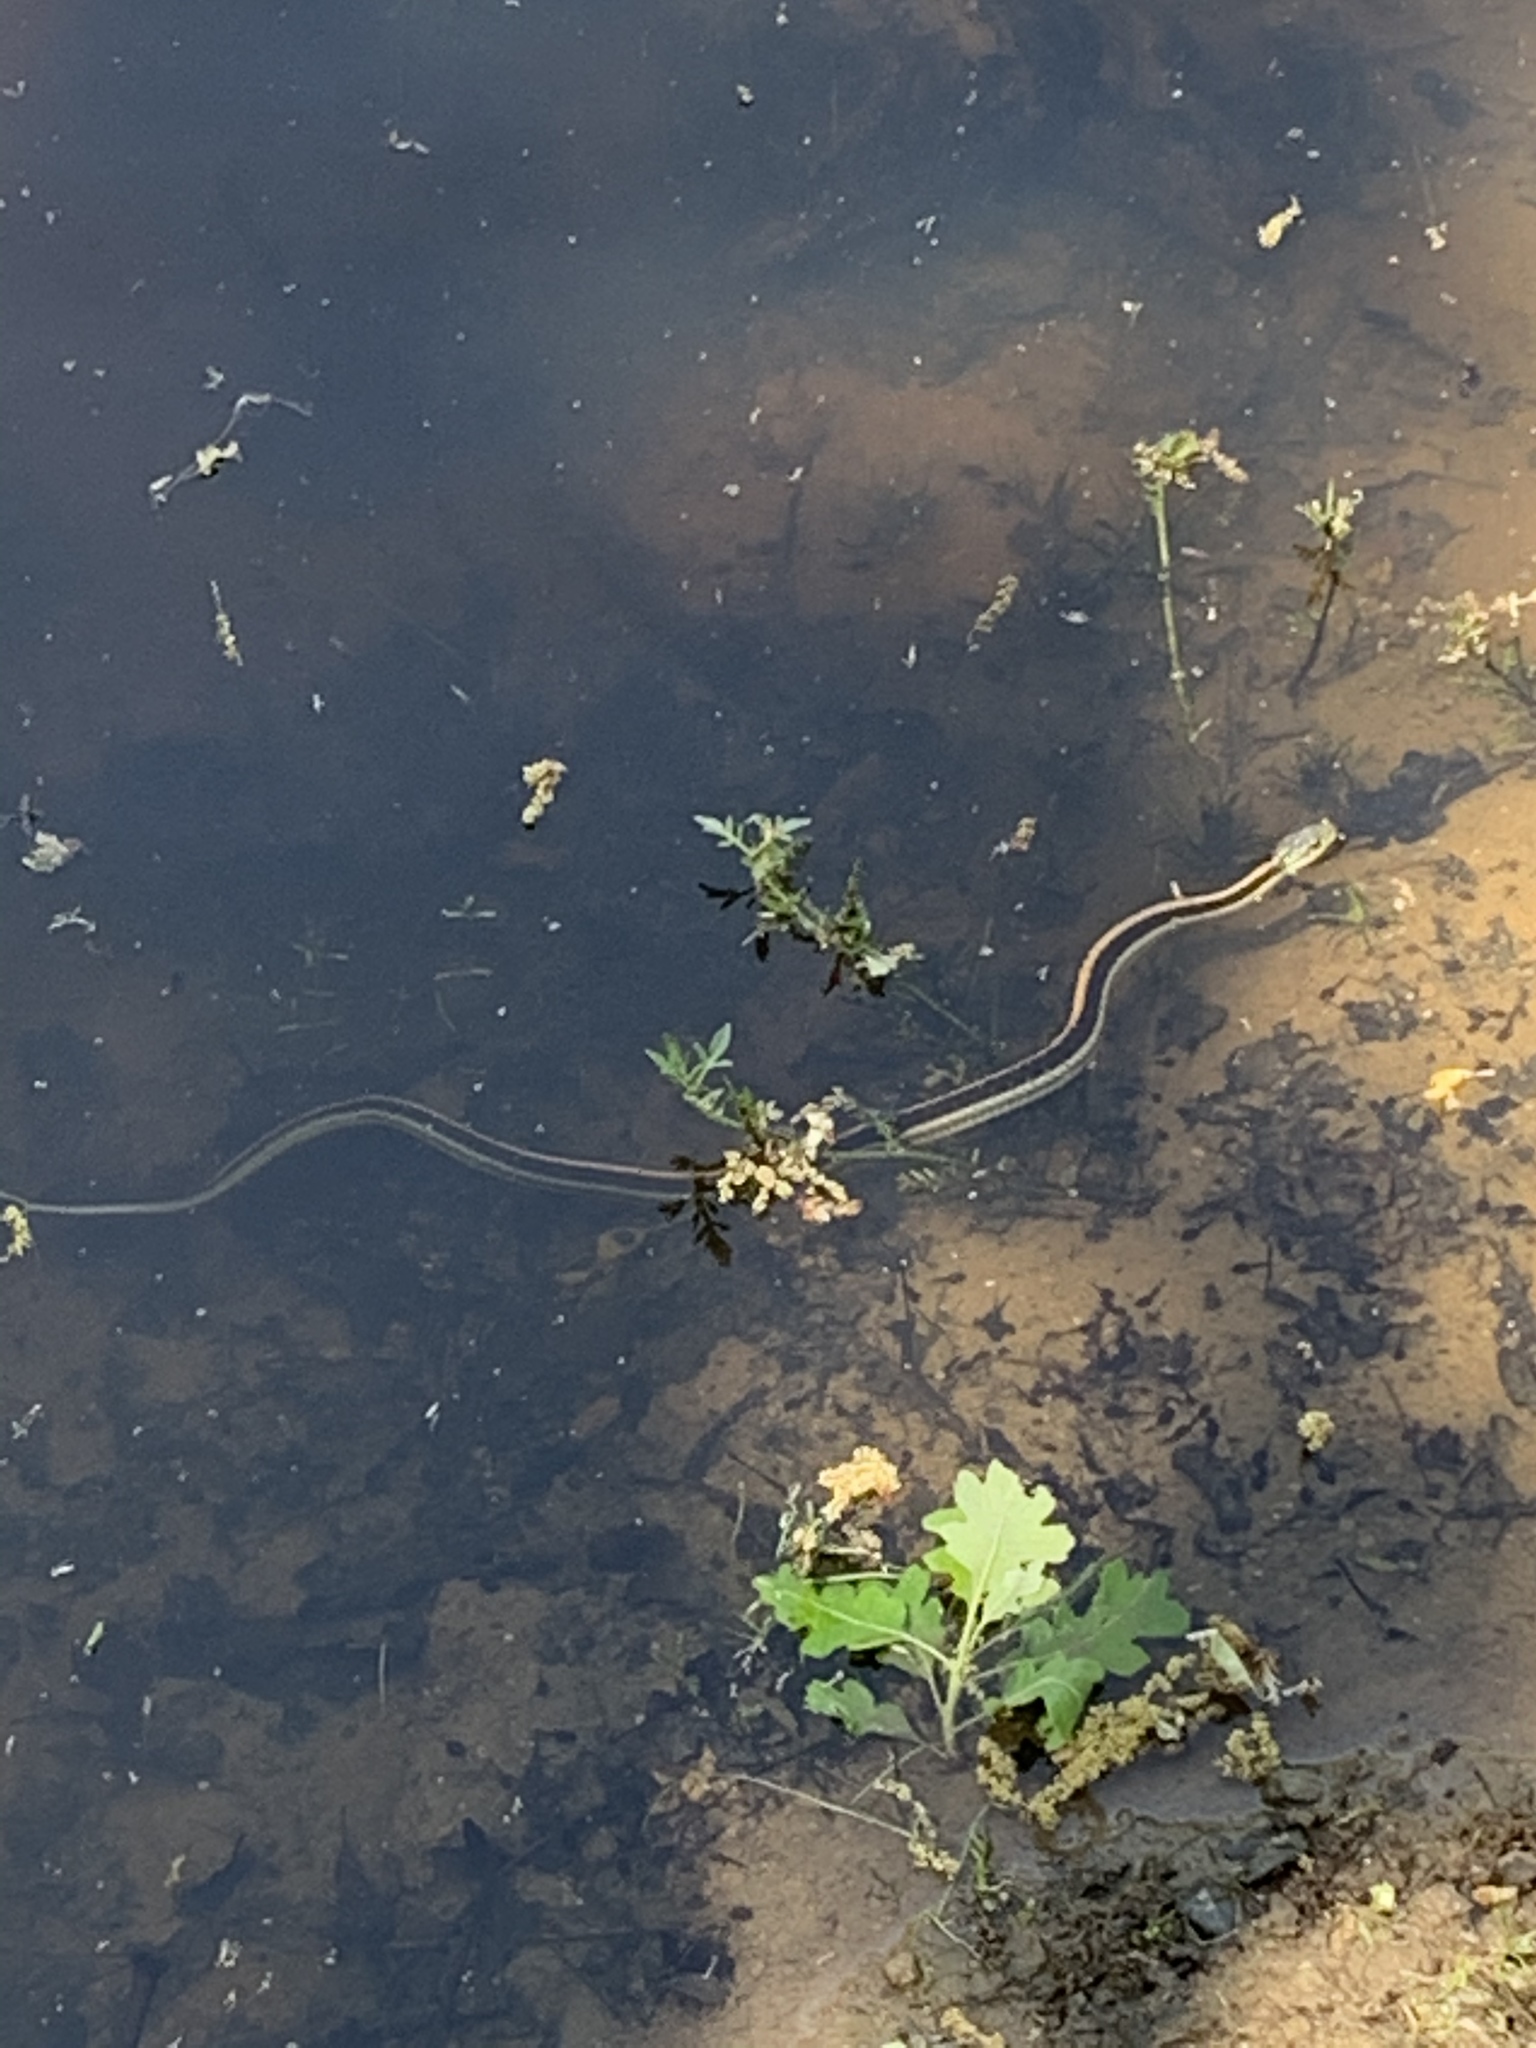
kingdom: Animalia
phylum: Chordata
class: Squamata
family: Colubridae
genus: Thamnophis
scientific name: Thamnophis atratus
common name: Pacific coast aquatic garter snake
